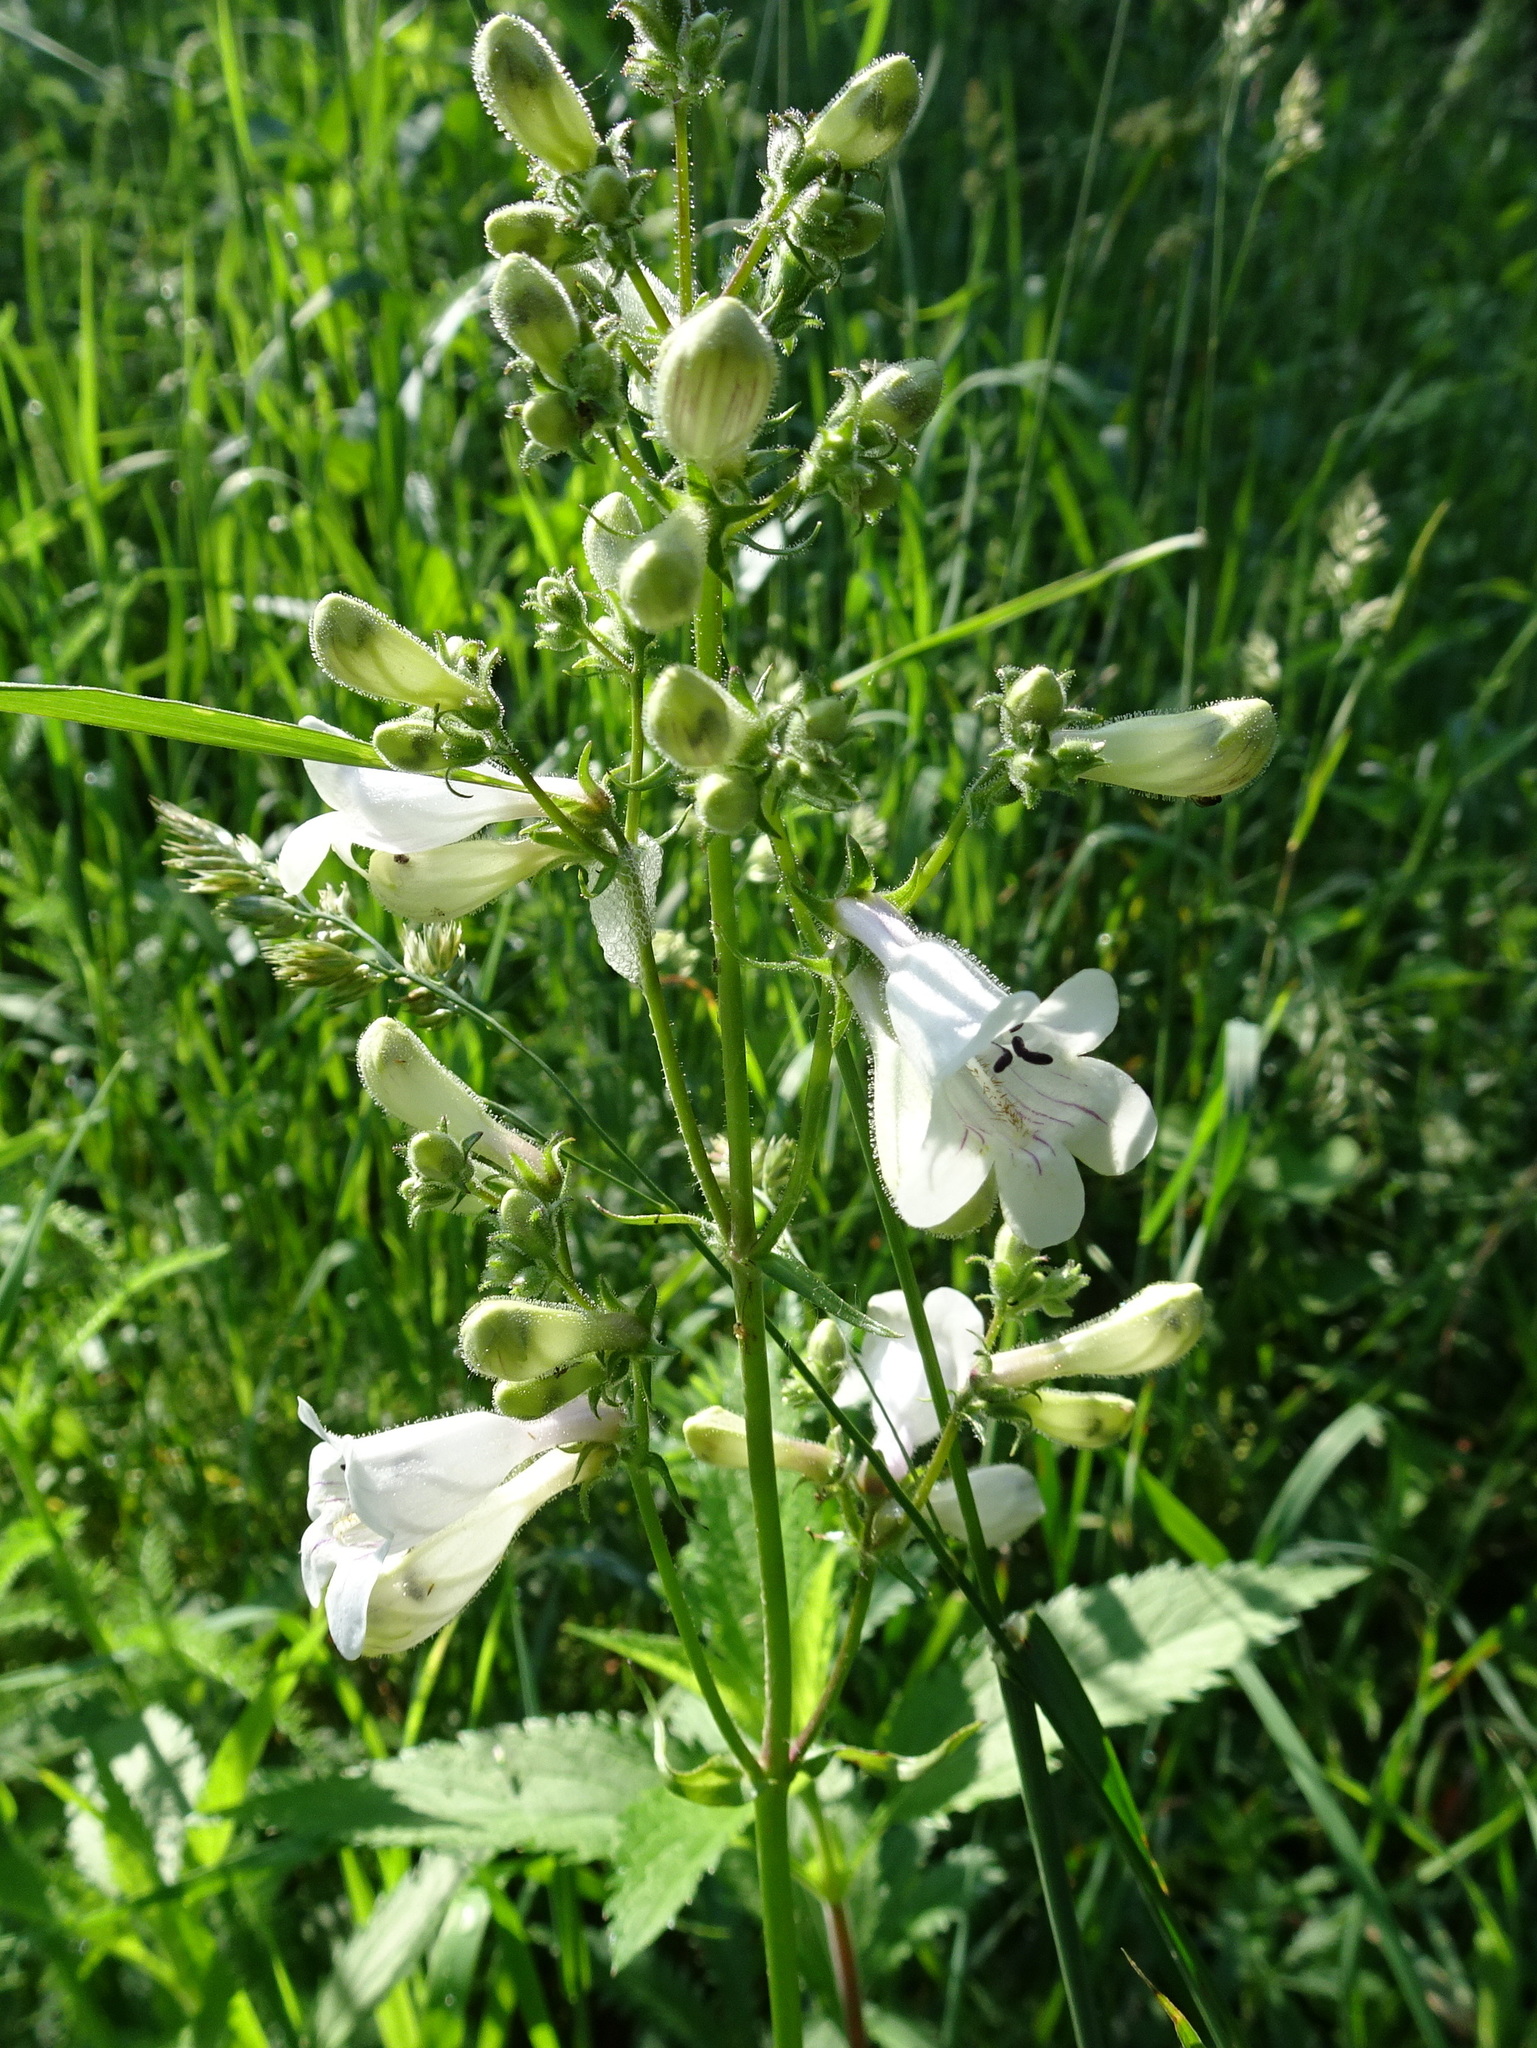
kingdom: Plantae
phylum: Tracheophyta
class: Magnoliopsida
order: Lamiales
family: Plantaginaceae
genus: Penstemon
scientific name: Penstemon digitalis
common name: Foxglove beardtongue
